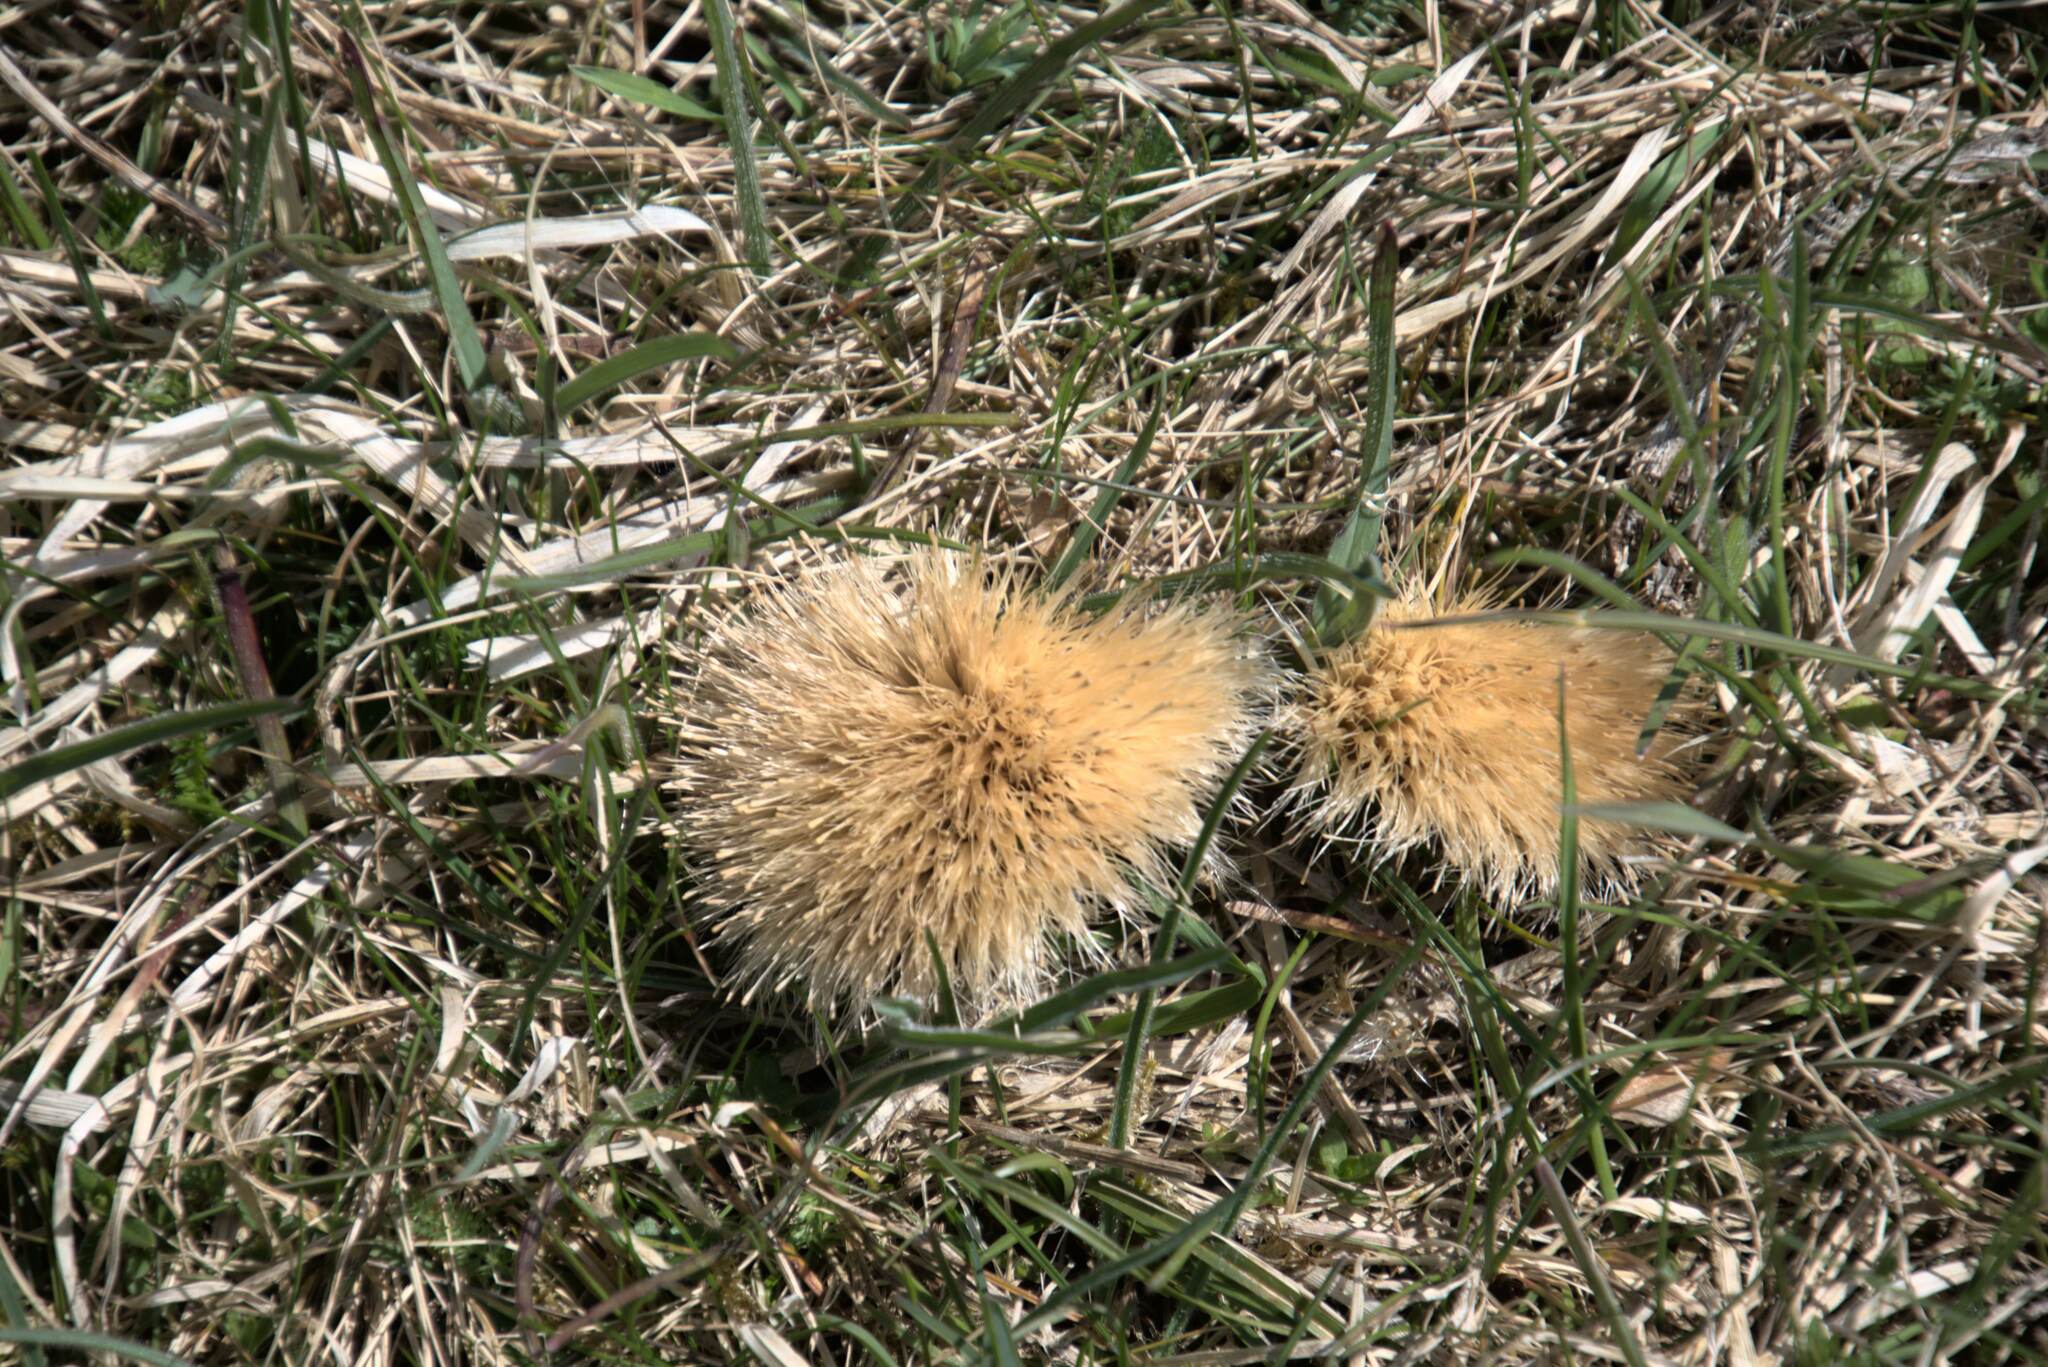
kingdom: Plantae
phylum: Tracheophyta
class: Magnoliopsida
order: Asterales
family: Asteraceae
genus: Carlina
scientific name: Carlina acaulis
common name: Stemless carline thistle
